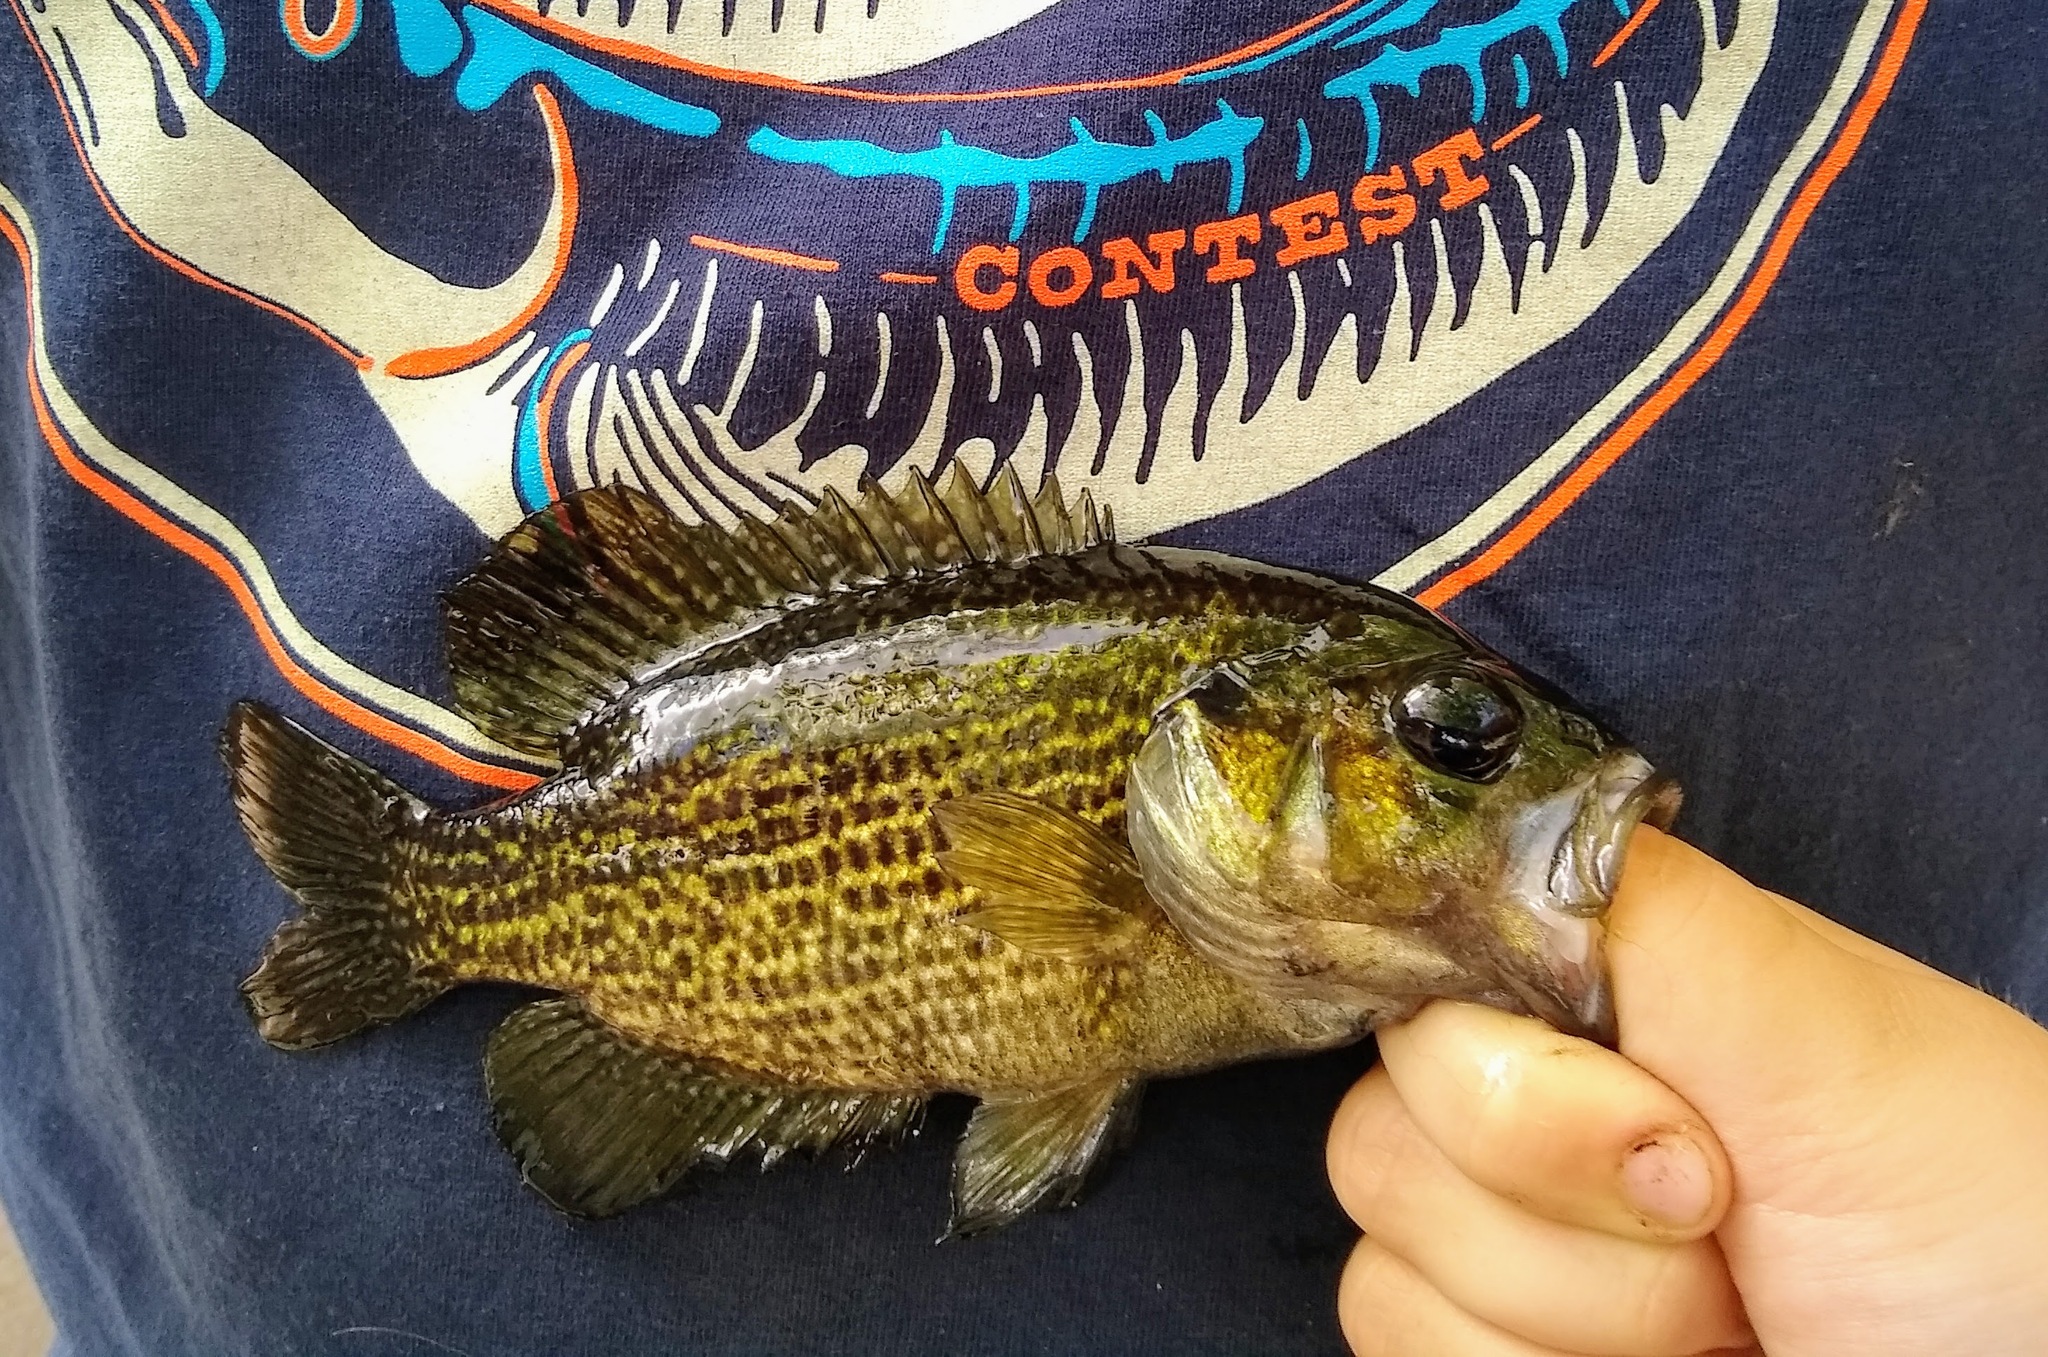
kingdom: Animalia
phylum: Chordata
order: Perciformes
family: Centrarchidae
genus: Ambloplites
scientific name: Ambloplites rupestris
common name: Rock bass
